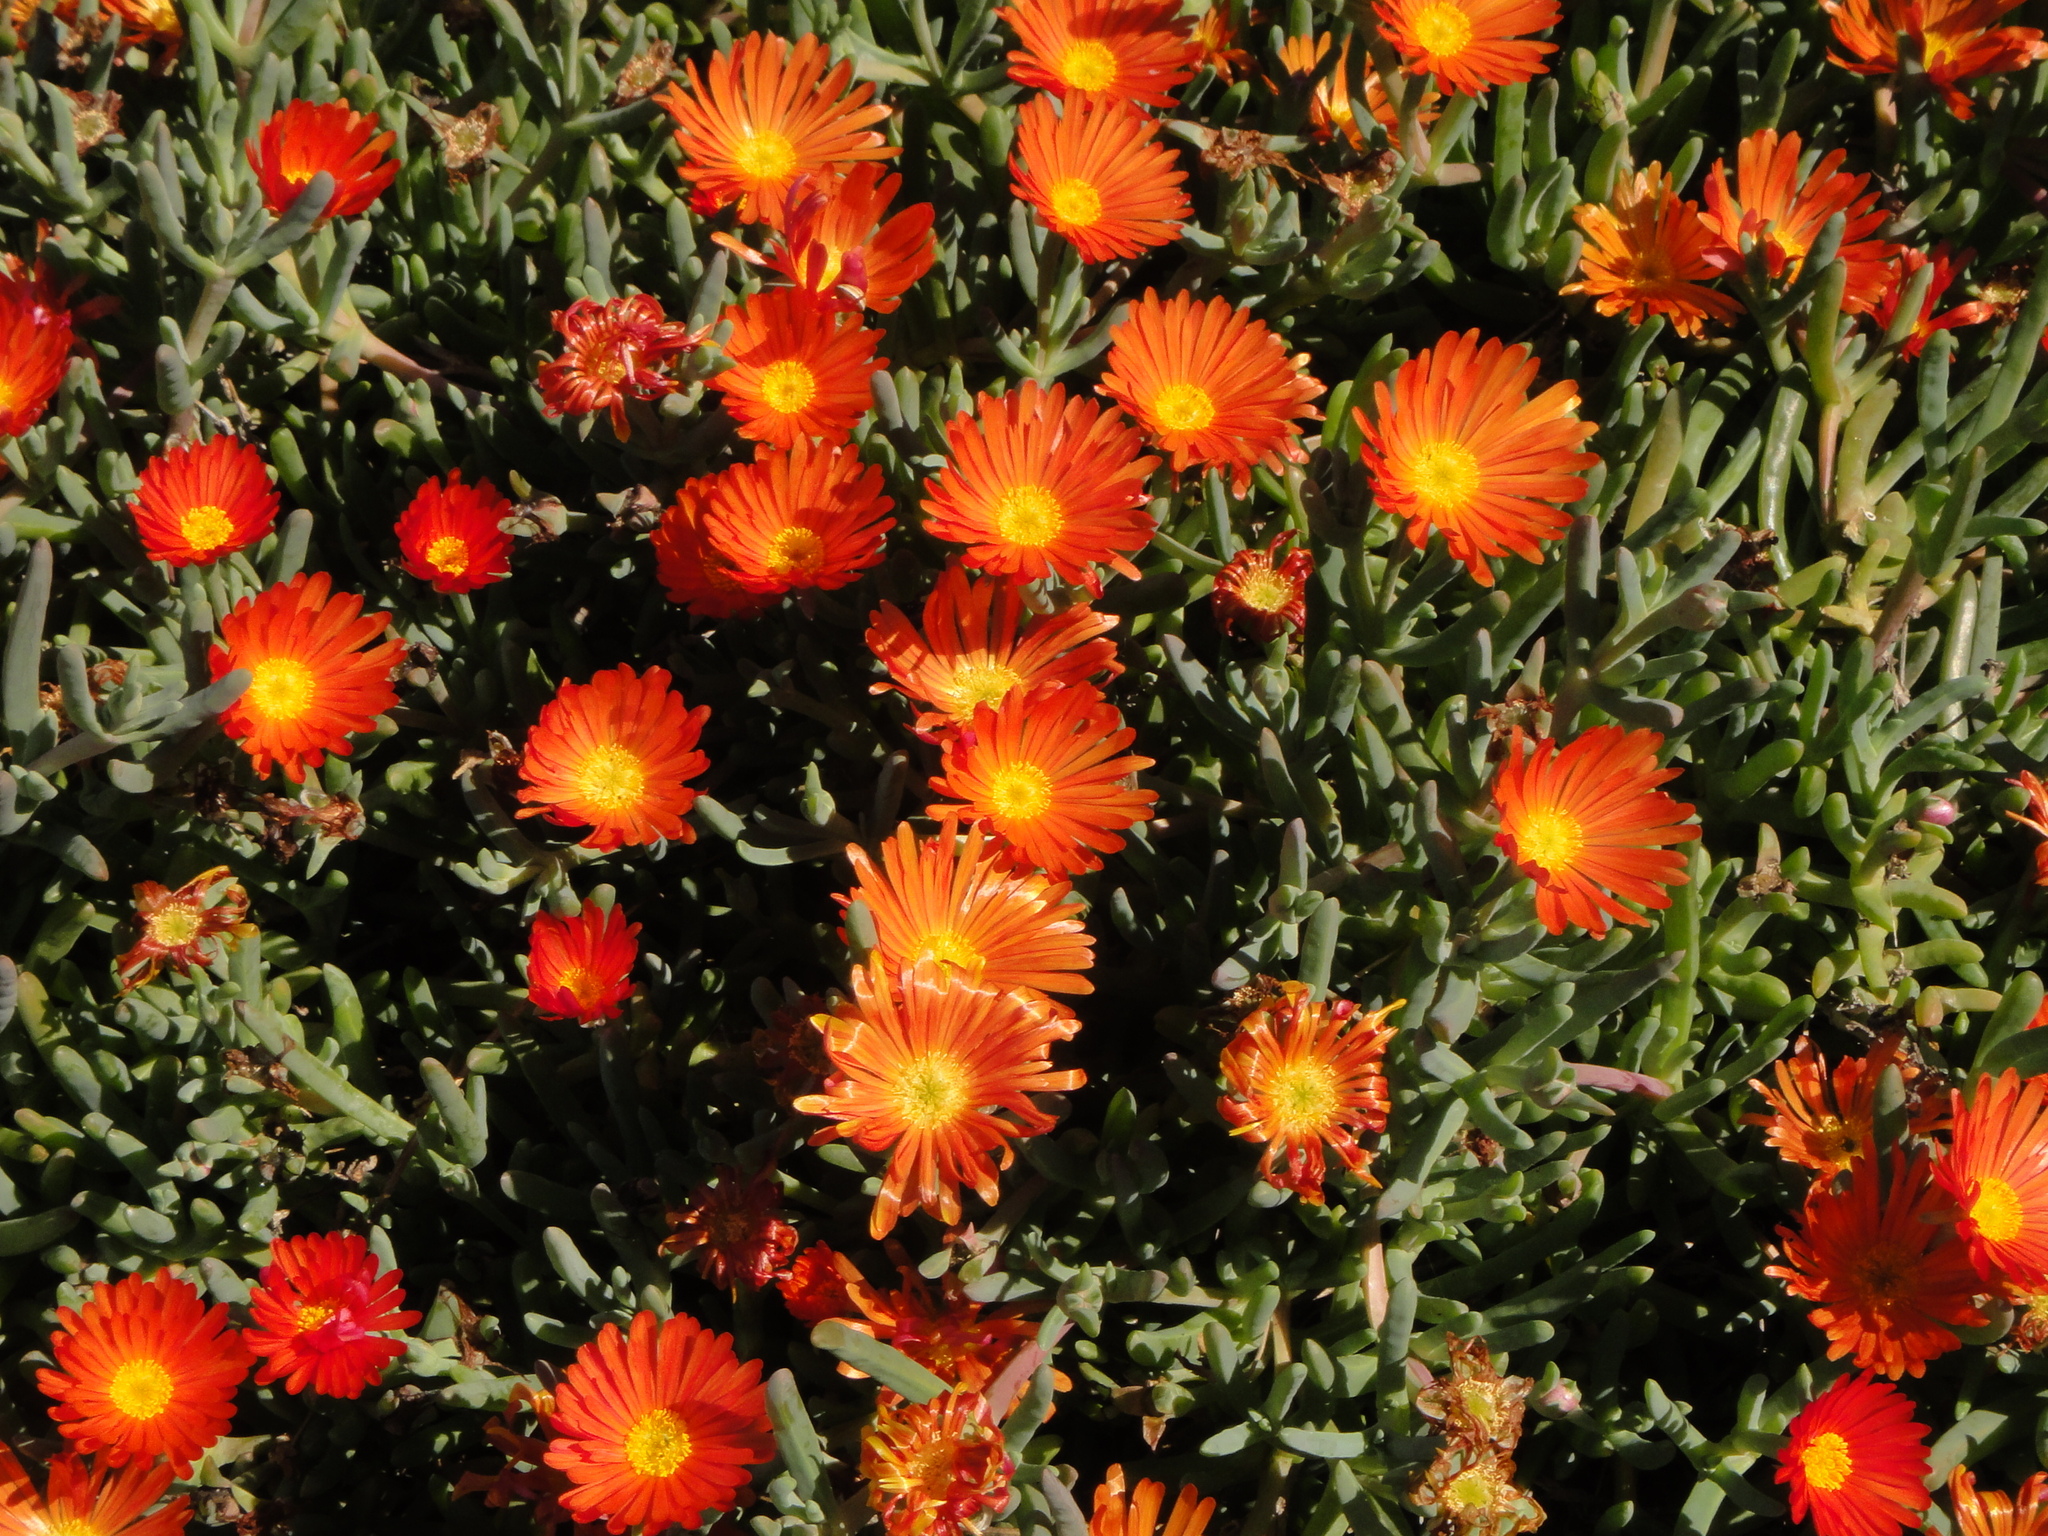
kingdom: Plantae
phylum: Tracheophyta
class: Magnoliopsida
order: Caryophyllales
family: Aizoaceae
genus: Malephora
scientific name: Malephora crocea
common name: Coppery mesemb
